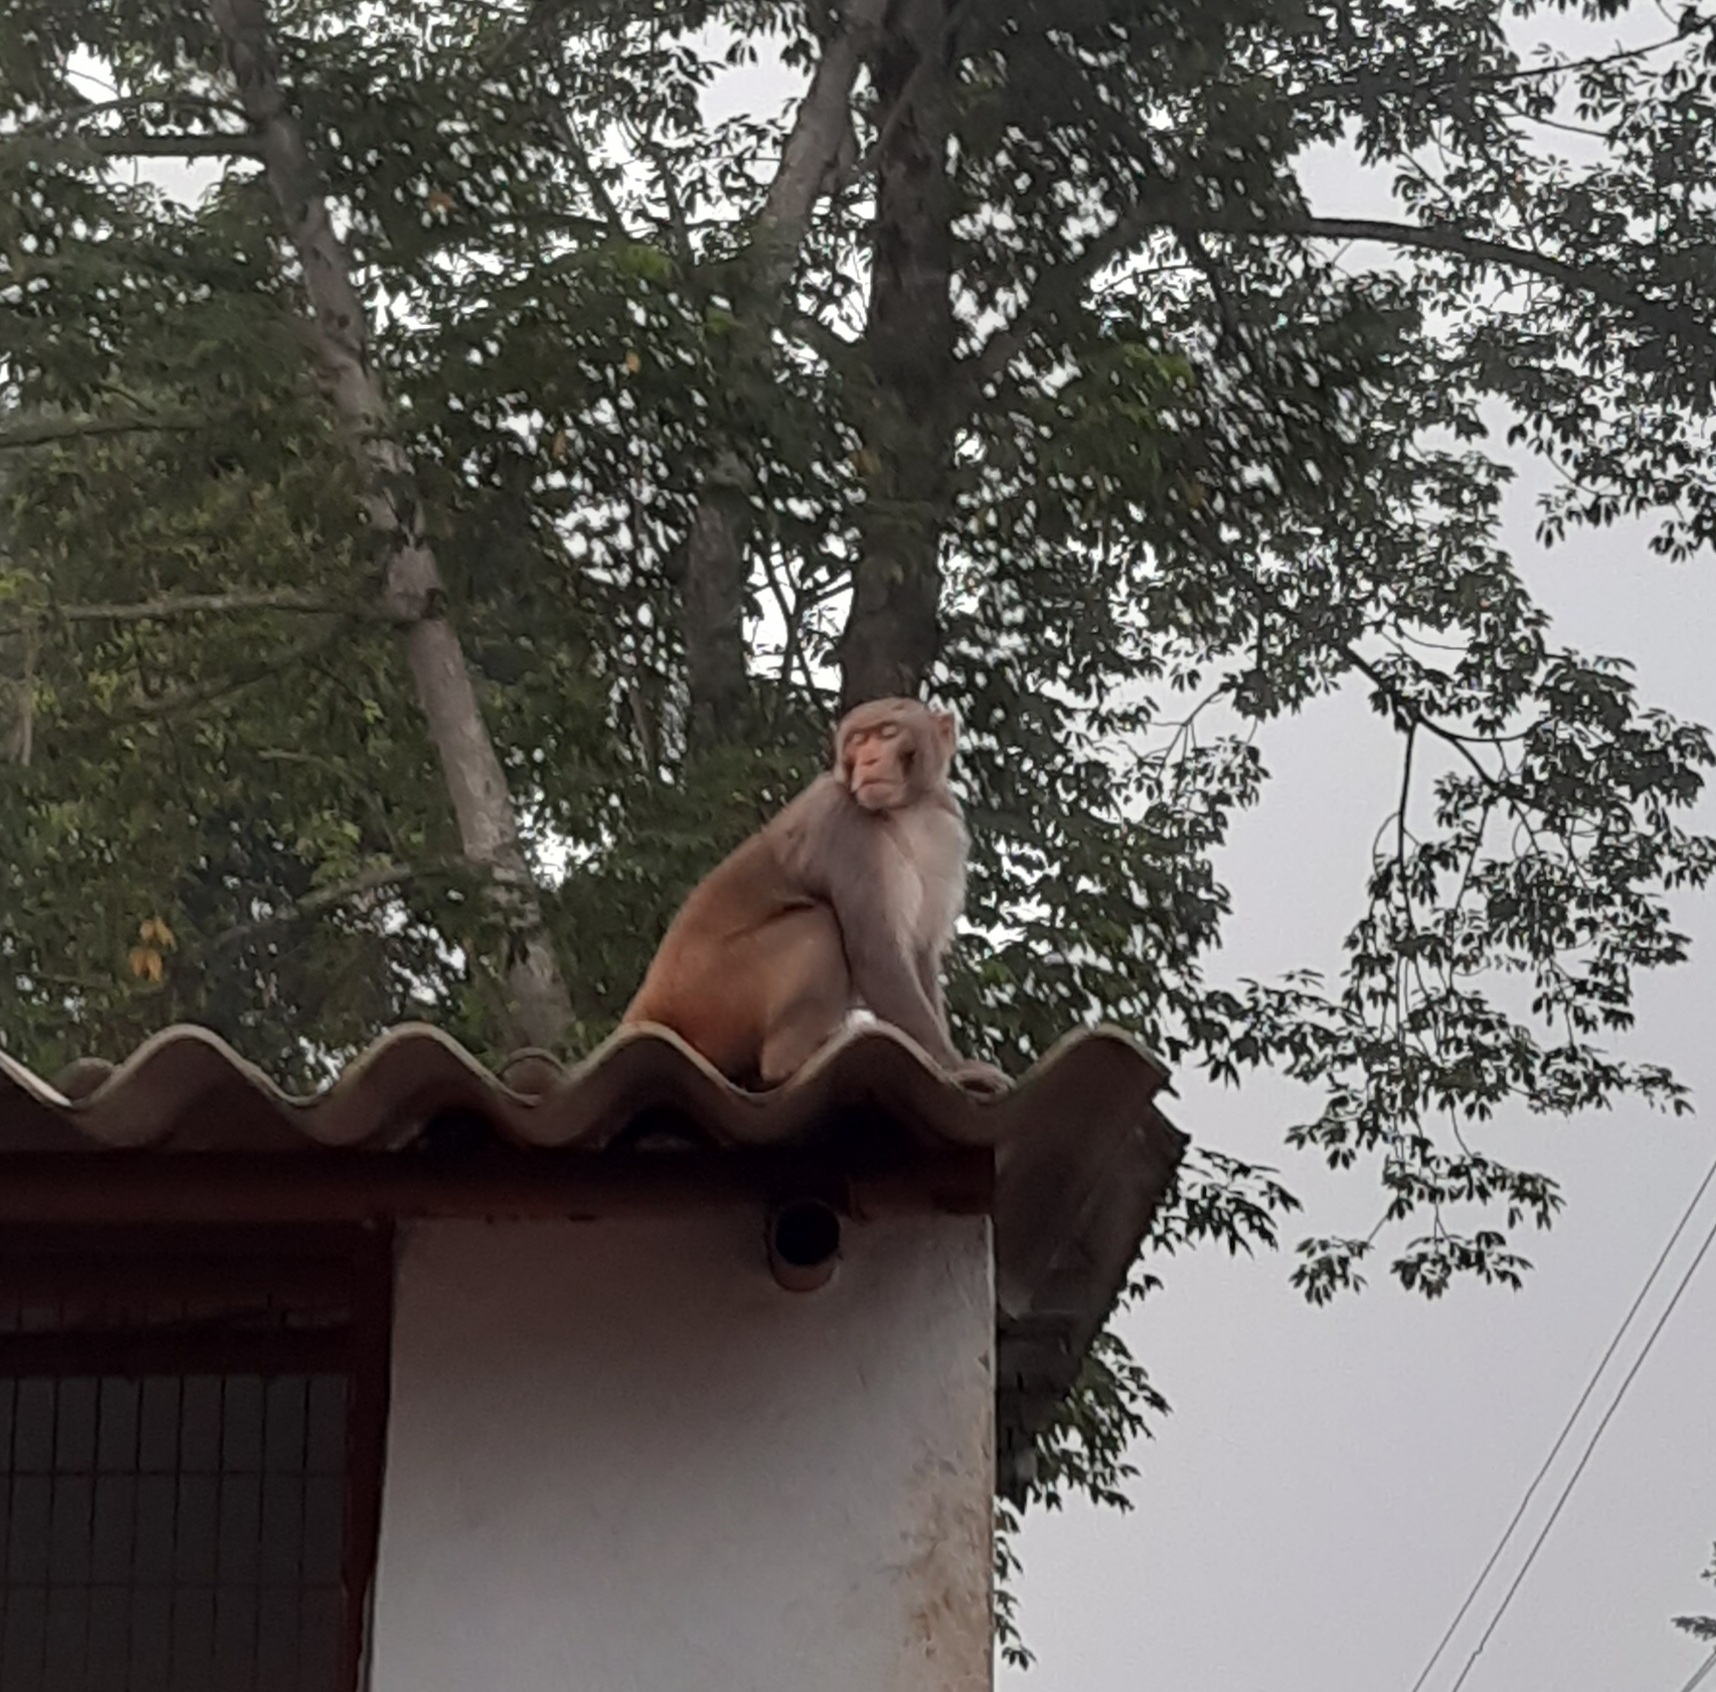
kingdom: Animalia
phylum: Chordata
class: Mammalia
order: Primates
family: Cercopithecidae
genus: Macaca
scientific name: Macaca mulatta
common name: Rhesus monkey
